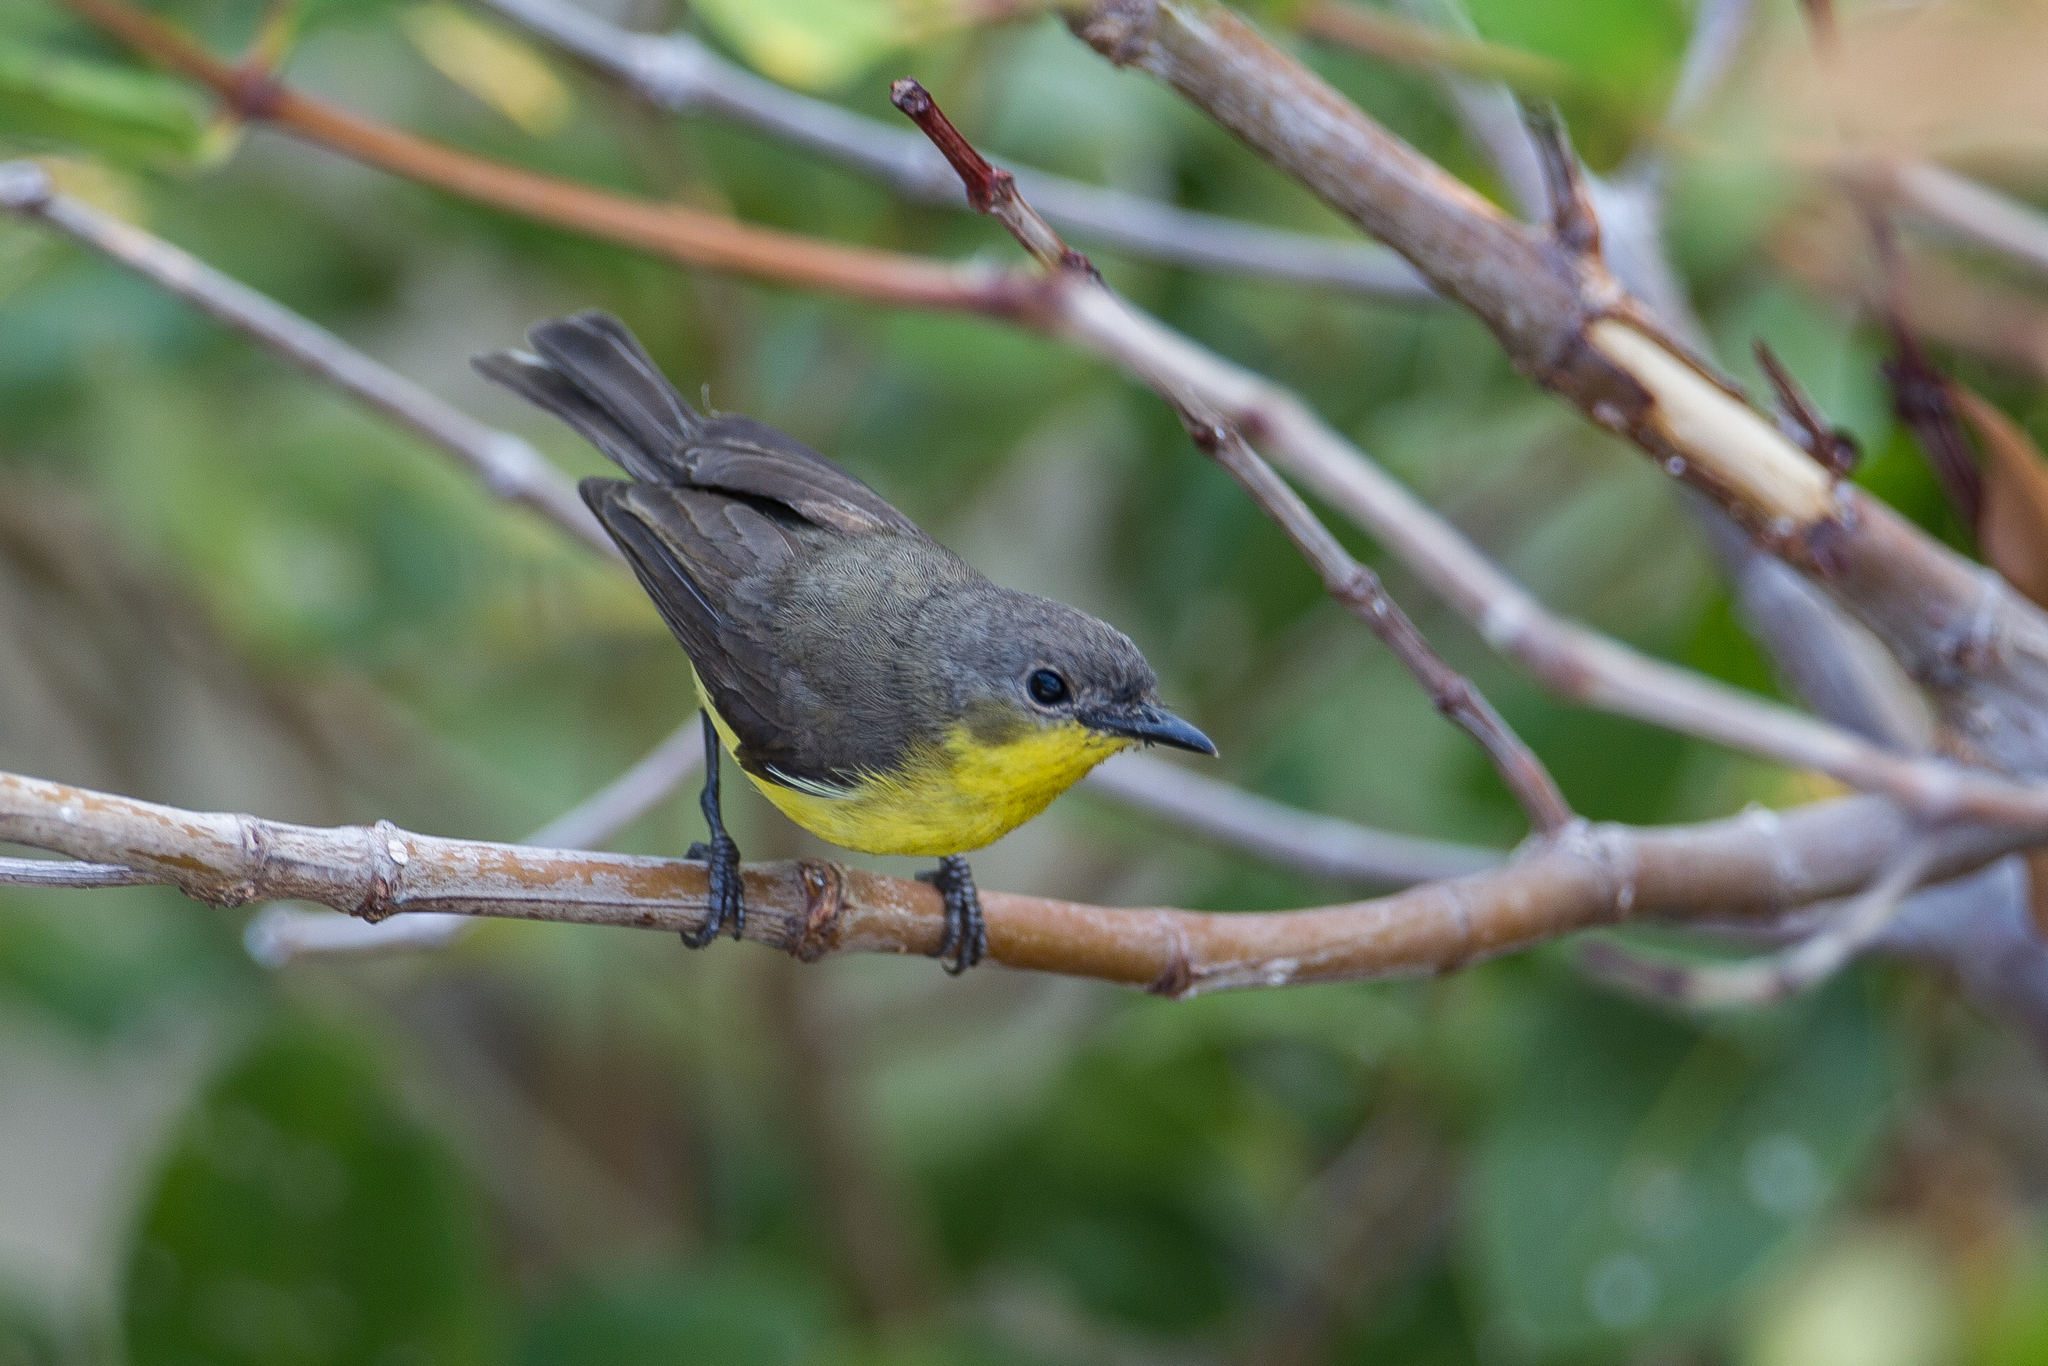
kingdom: Animalia
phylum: Chordata
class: Aves
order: Passeriformes
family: Acanthizidae
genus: Gerygone
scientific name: Gerygone sulphurea
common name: Golden-bellied gerygone
